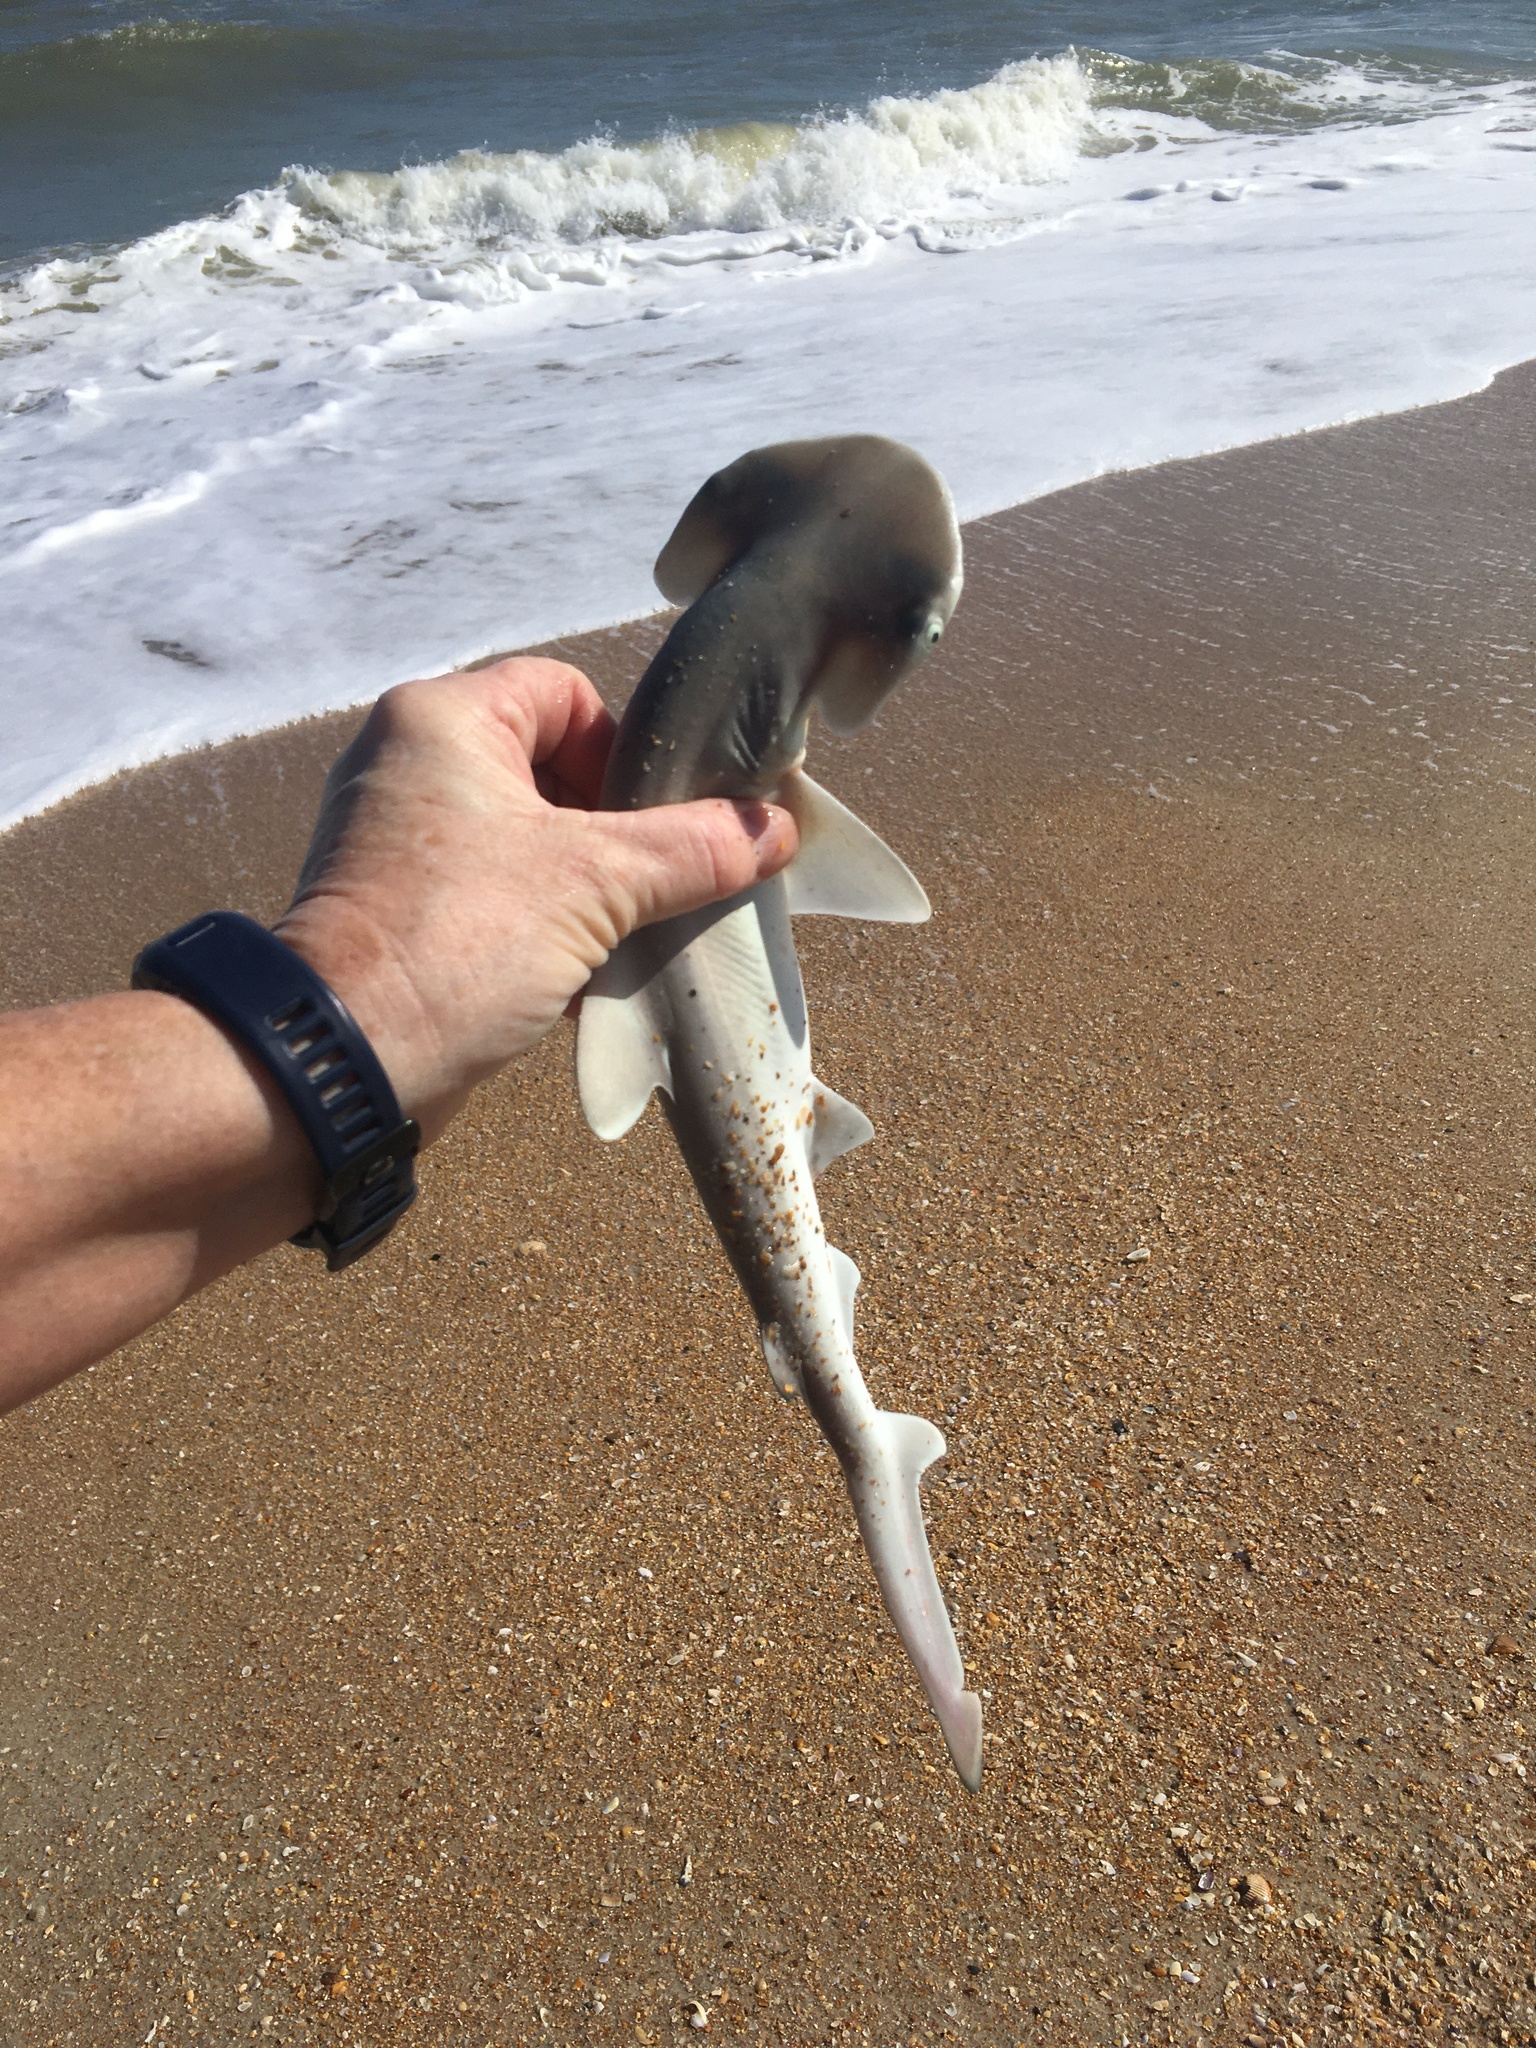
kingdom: Animalia
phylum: Chordata
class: Elasmobranchii
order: Carcharhiniformes
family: Sphyrnidae
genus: Sphyrna
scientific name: Sphyrna tiburo
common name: Bonnethead
